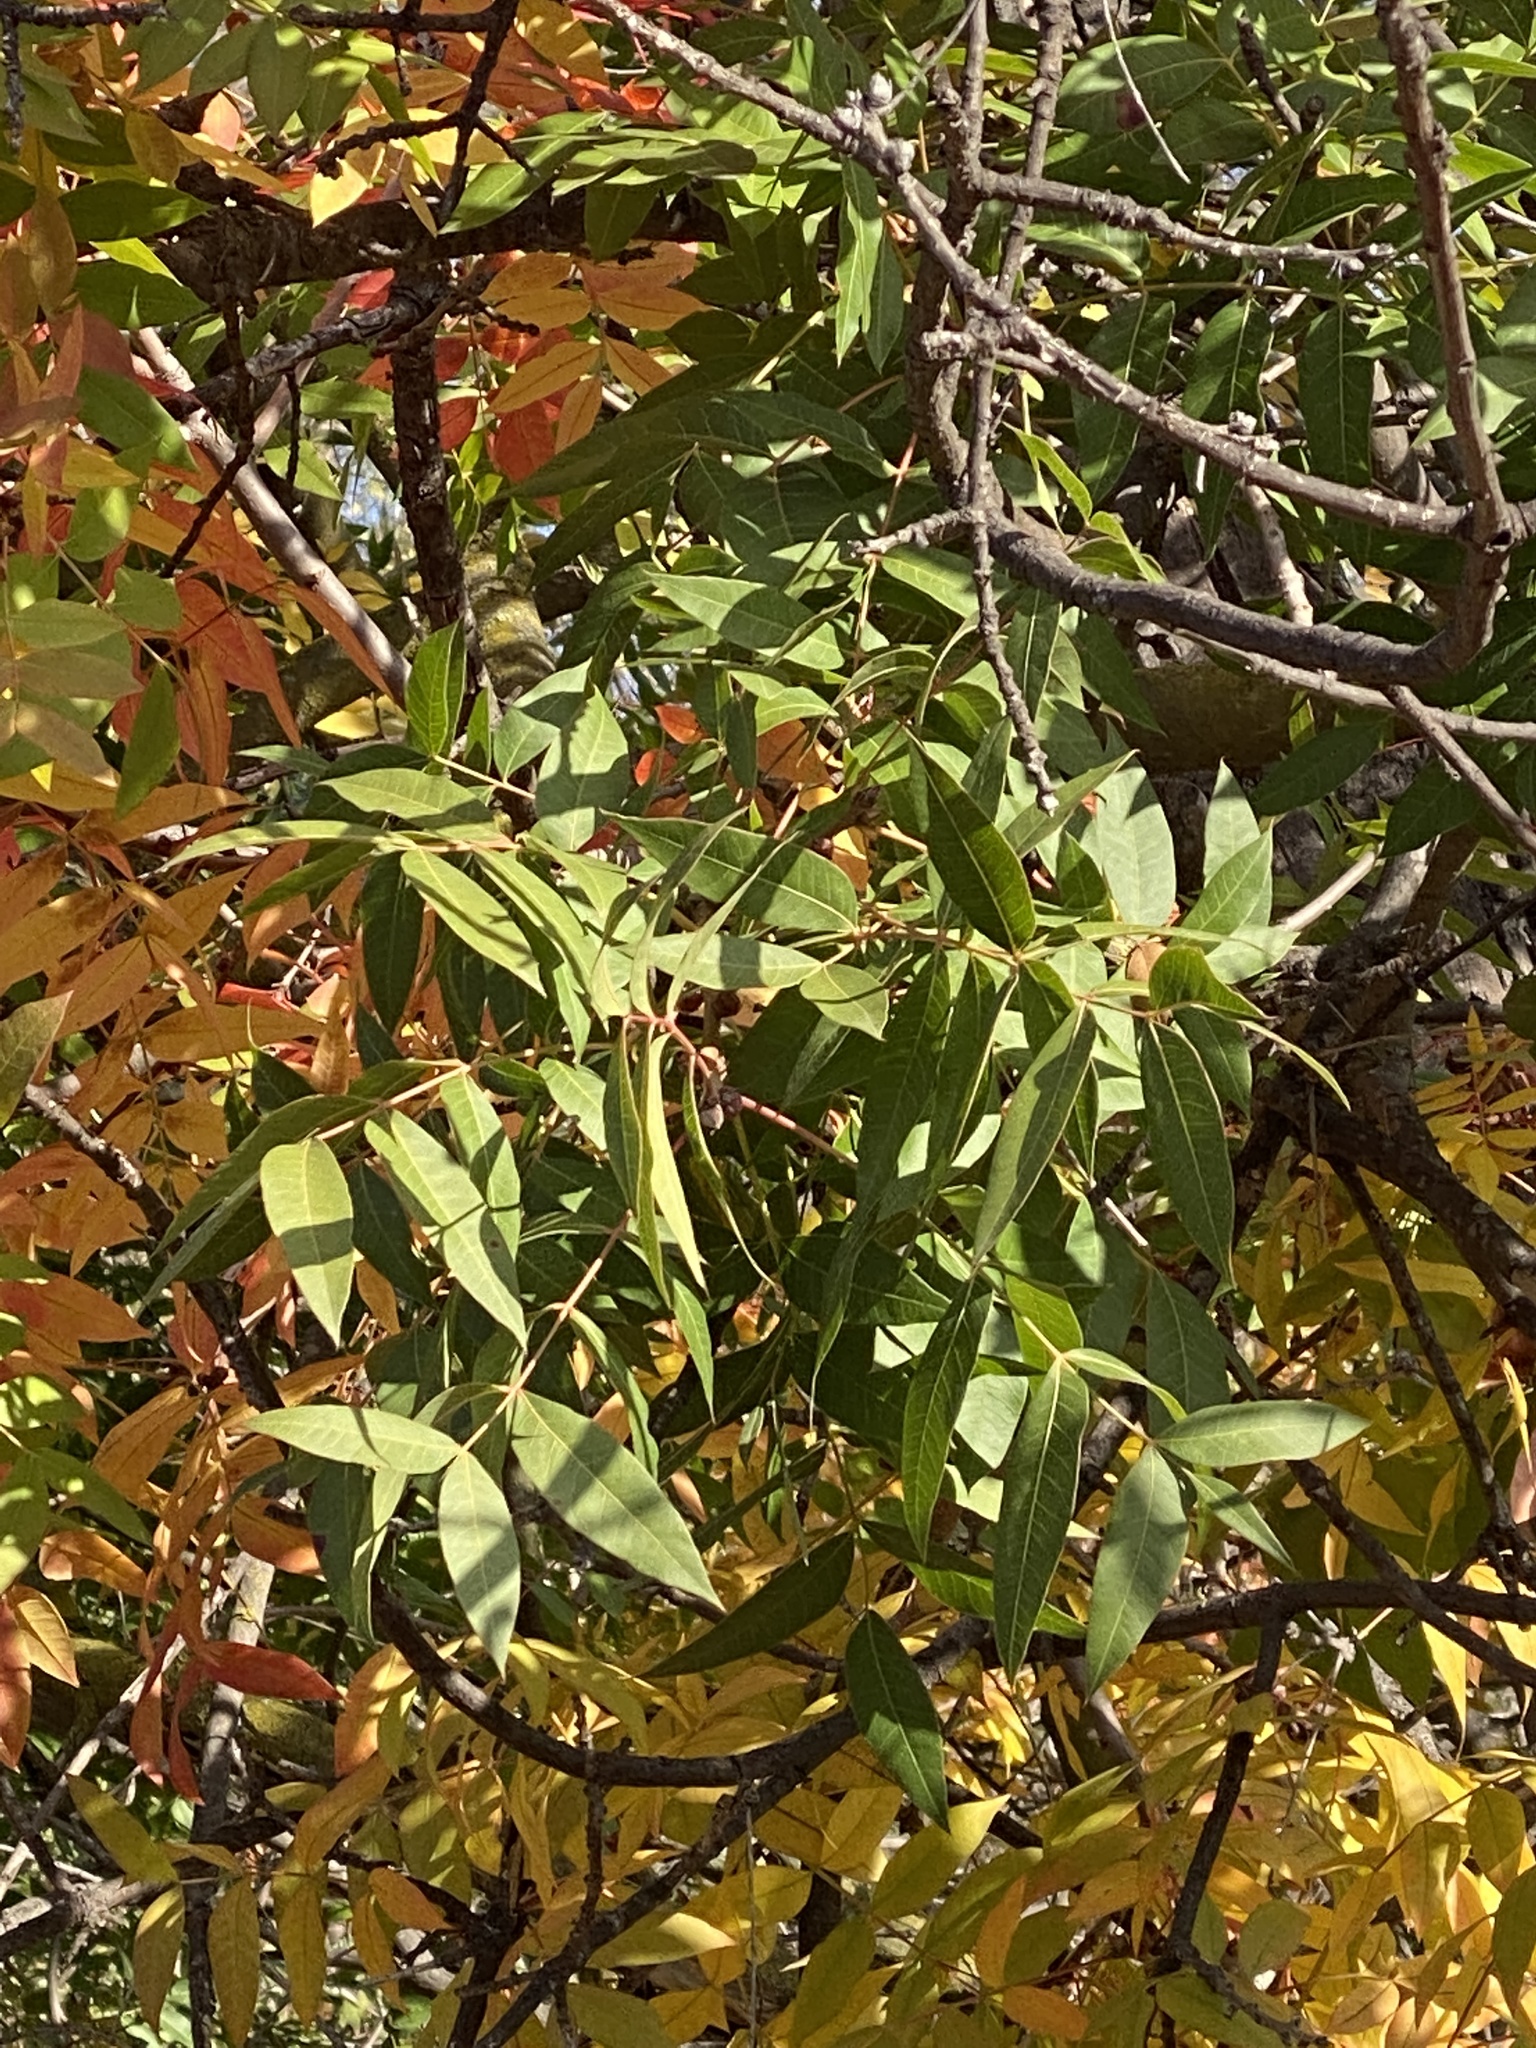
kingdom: Plantae
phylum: Tracheophyta
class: Magnoliopsida
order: Sapindales
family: Anacardiaceae
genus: Pistacia
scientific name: Pistacia chinensis
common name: Chinese pistache
